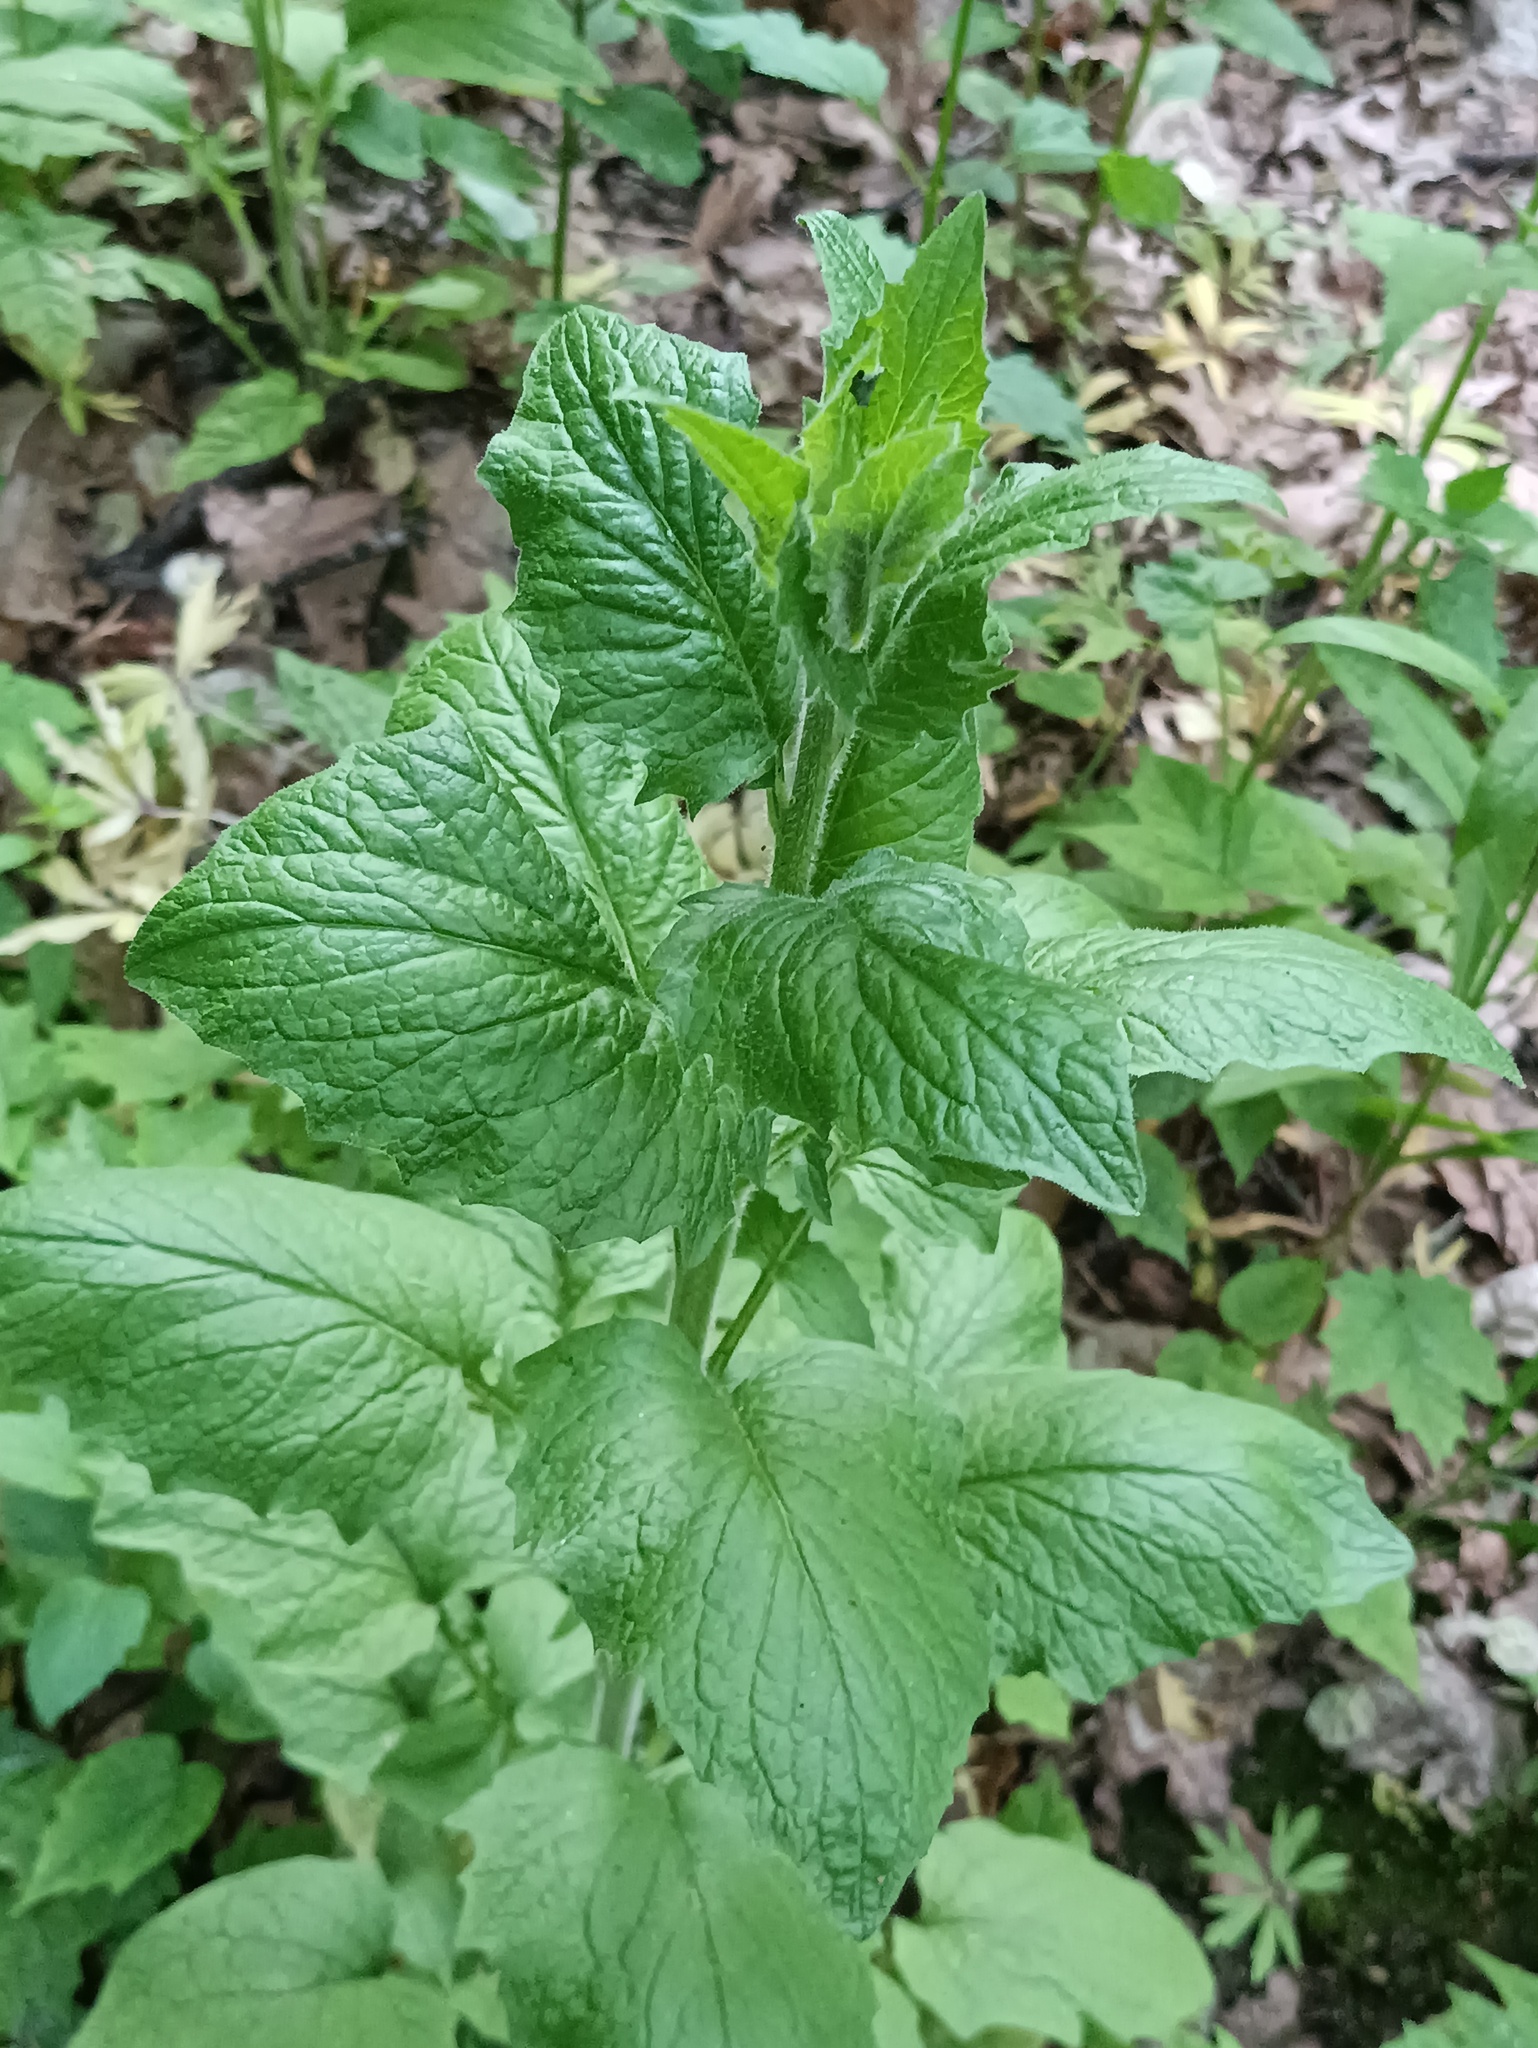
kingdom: Plantae
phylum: Tracheophyta
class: Magnoliopsida
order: Asterales
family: Asteraceae
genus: Lapsana
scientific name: Lapsana communis
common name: Nipplewort
